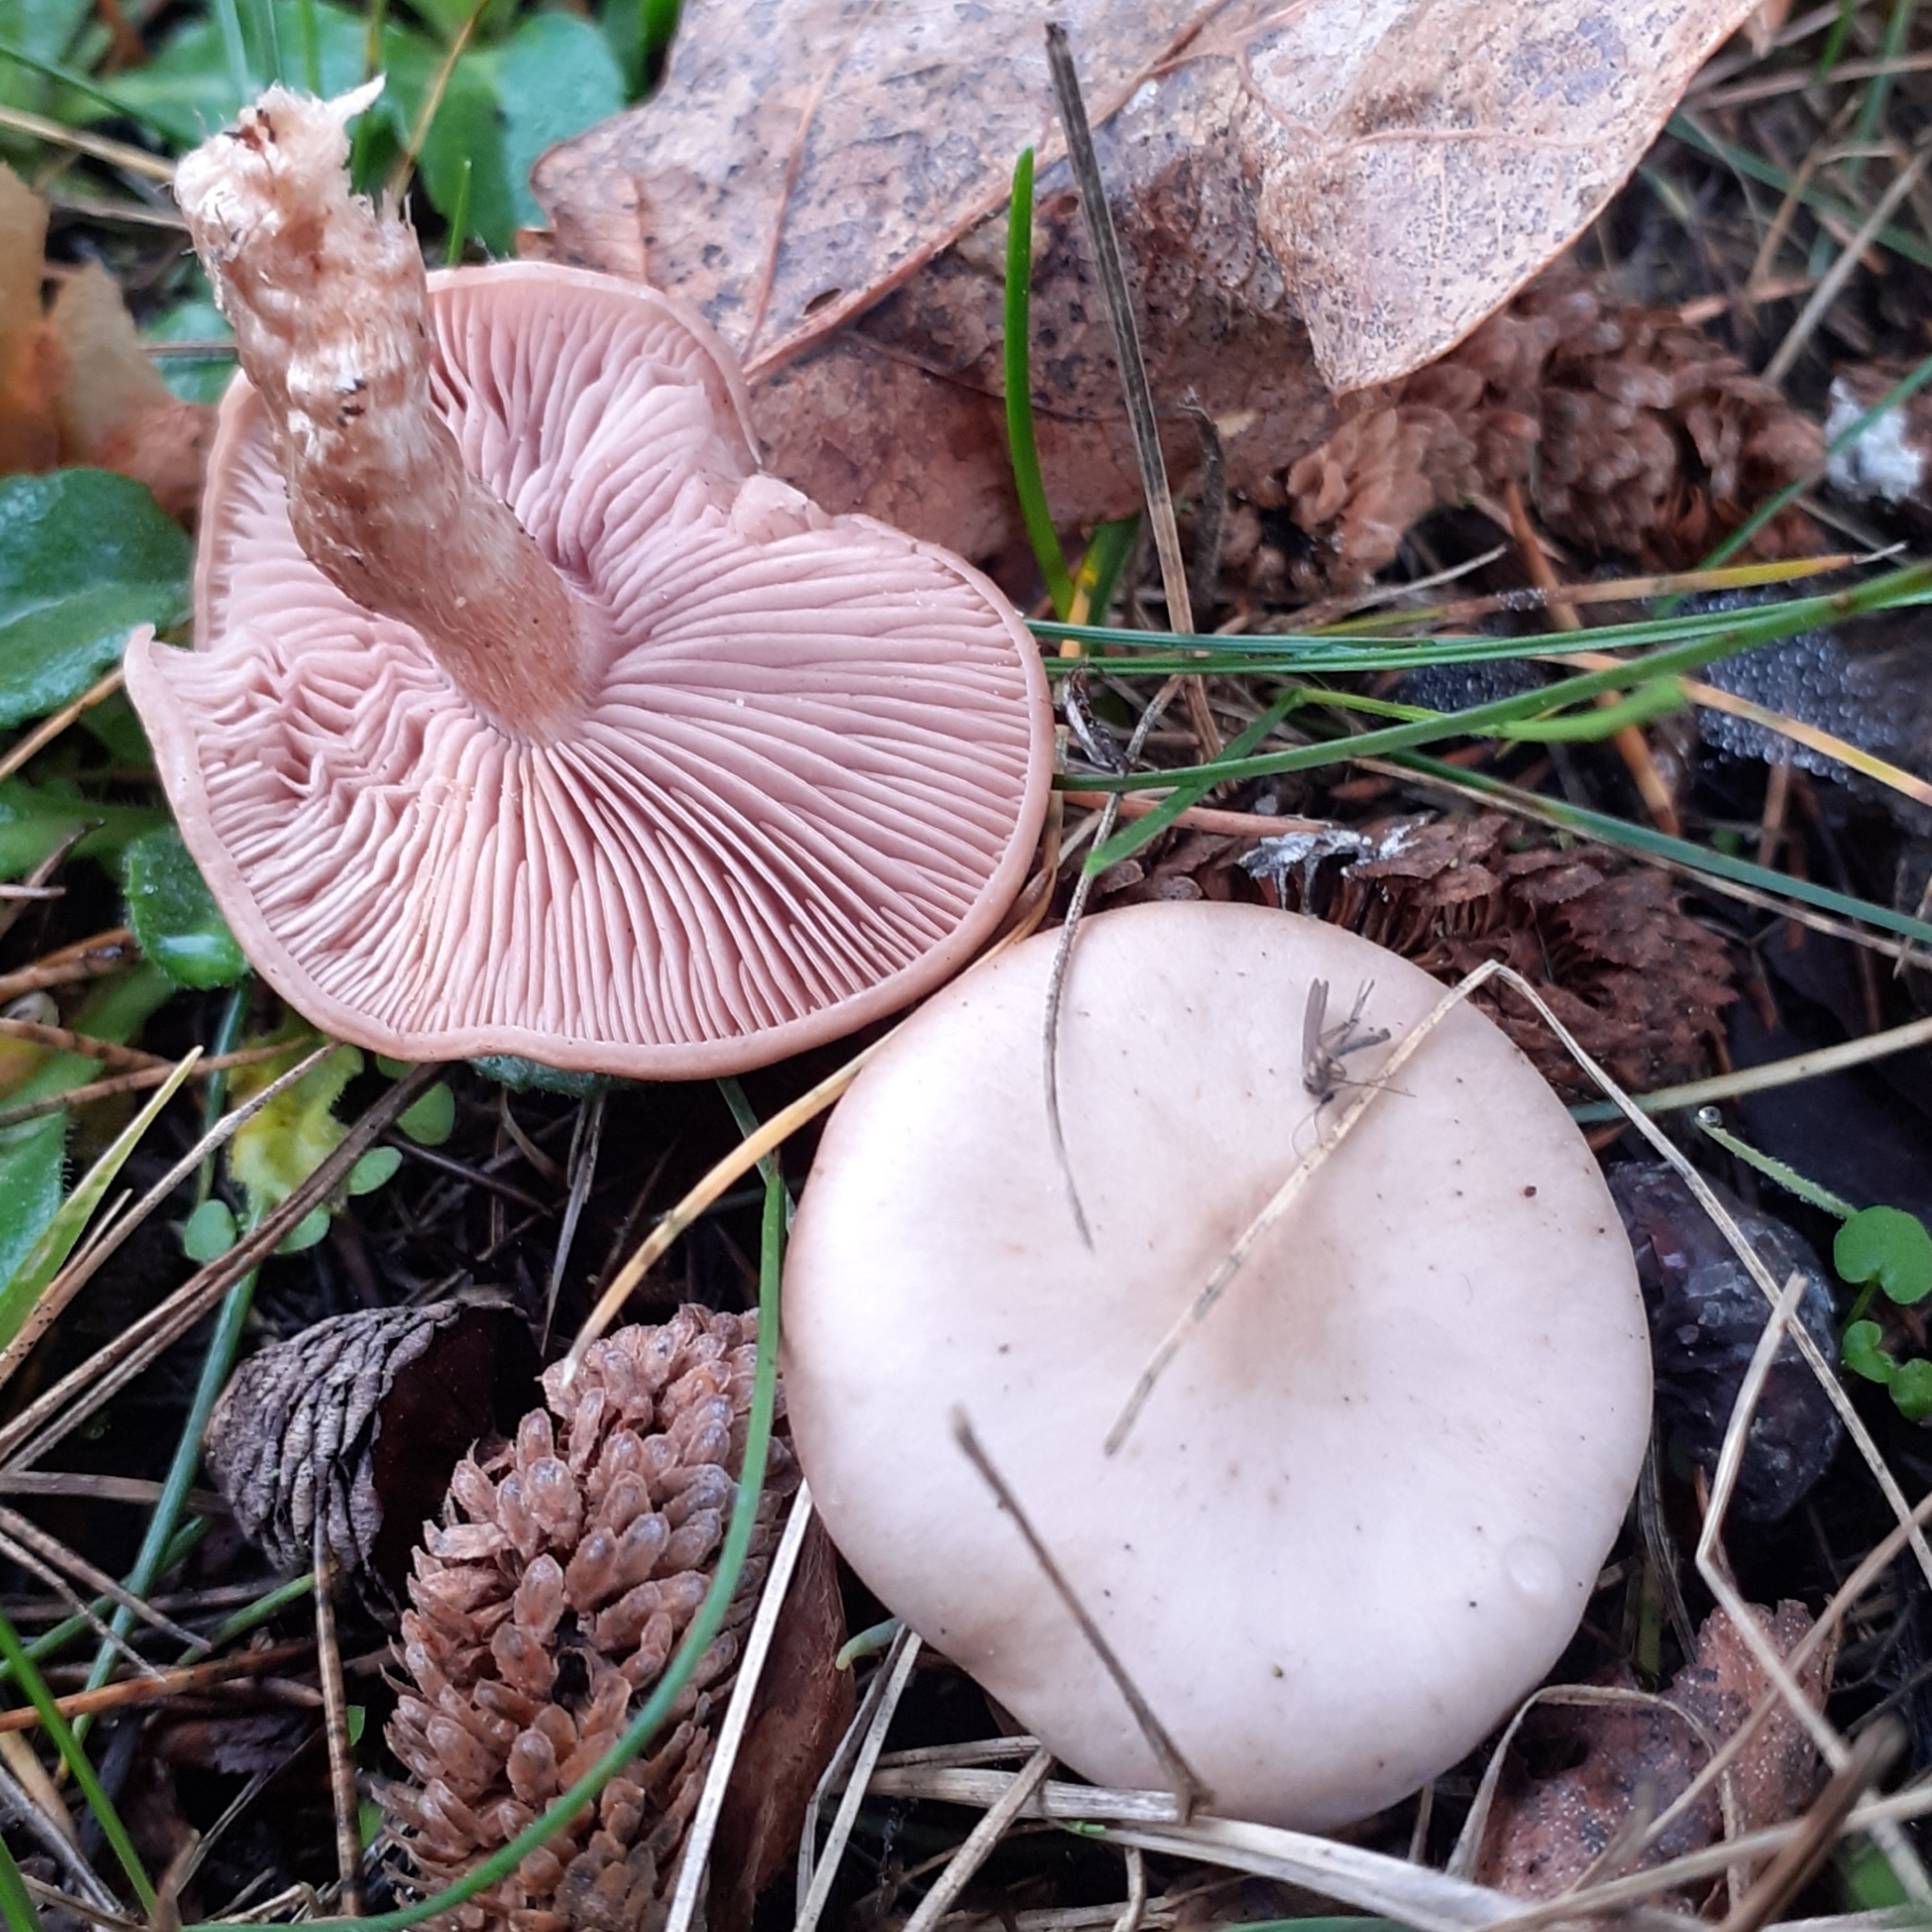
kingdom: Fungi
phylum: Basidiomycota
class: Agaricomycetes
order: Agaricales
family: Tricholomataceae
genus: Collybia
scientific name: Collybia
